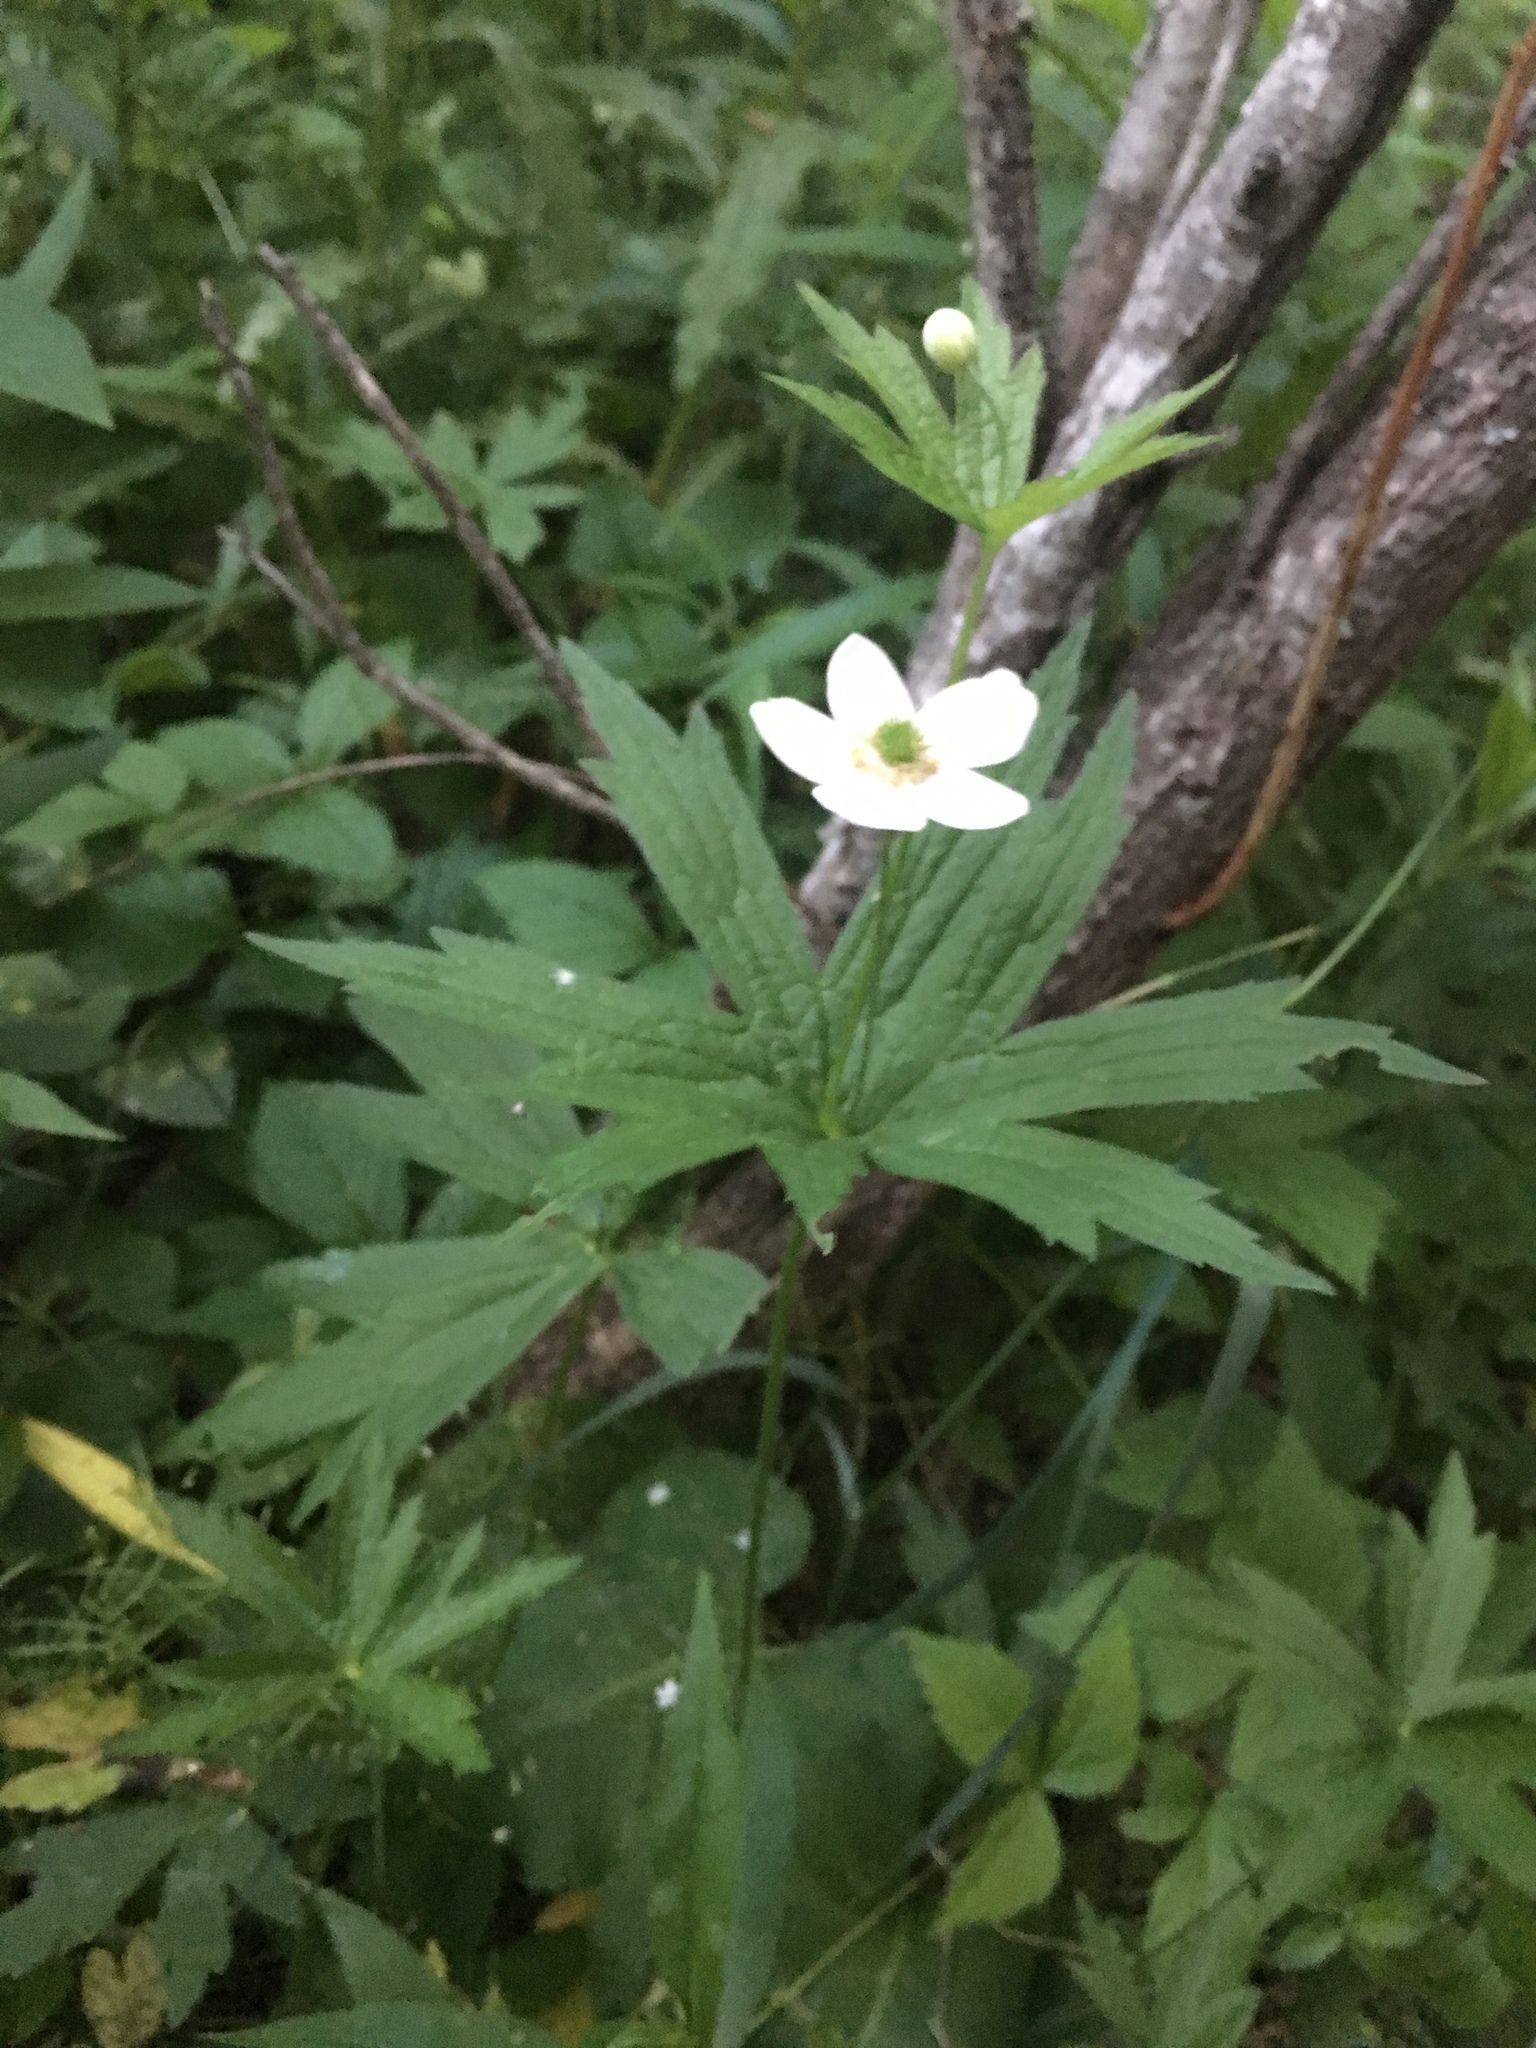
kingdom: Plantae
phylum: Tracheophyta
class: Magnoliopsida
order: Ranunculales
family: Ranunculaceae
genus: Anemonastrum
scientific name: Anemonastrum canadense
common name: Canada anemone
